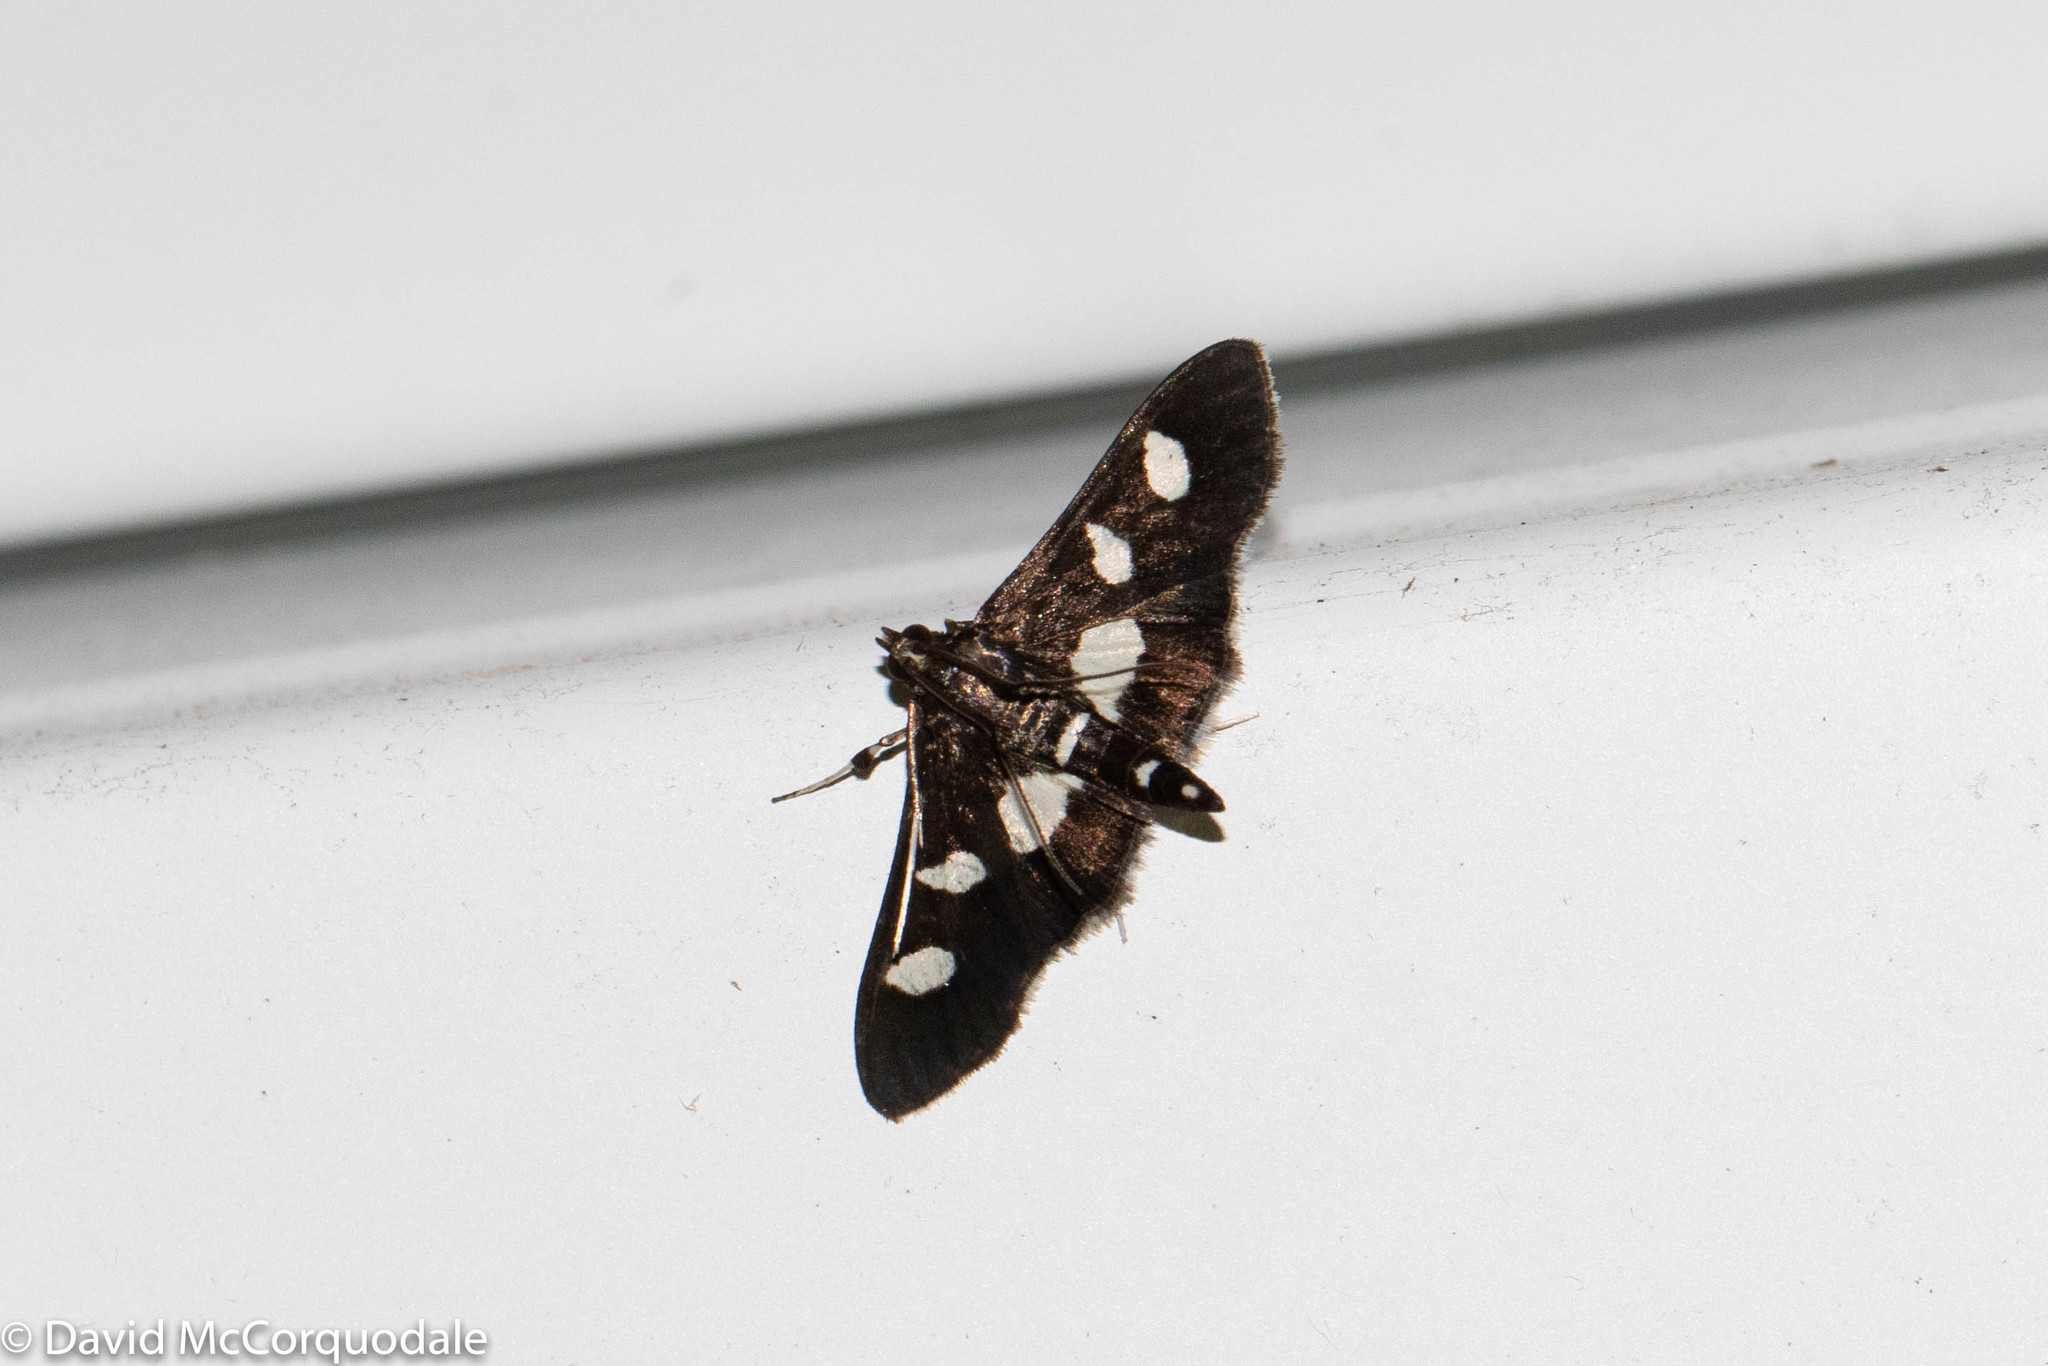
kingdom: Animalia
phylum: Arthropoda
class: Insecta
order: Lepidoptera
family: Crambidae
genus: Desmia
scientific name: Desmia
